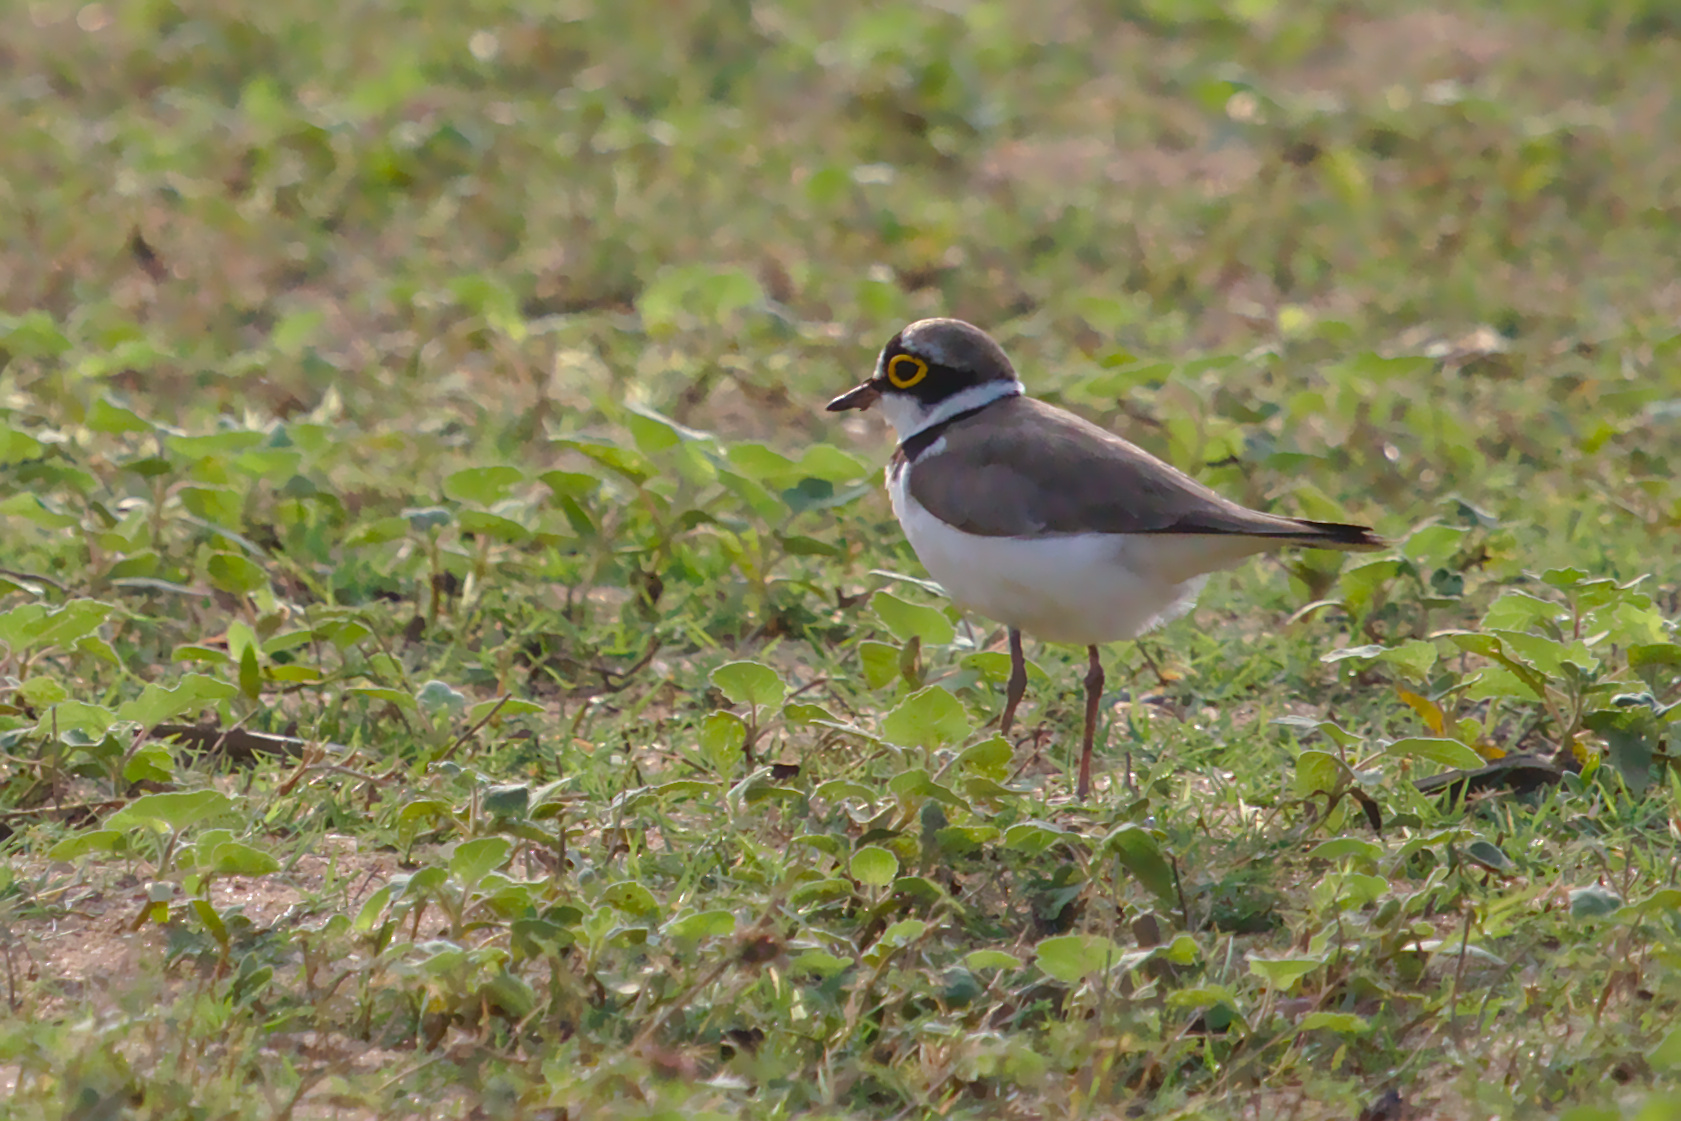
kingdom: Animalia
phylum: Chordata
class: Aves
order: Charadriiformes
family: Charadriidae
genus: Charadrius
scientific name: Charadrius dubius
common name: Little ringed plover
